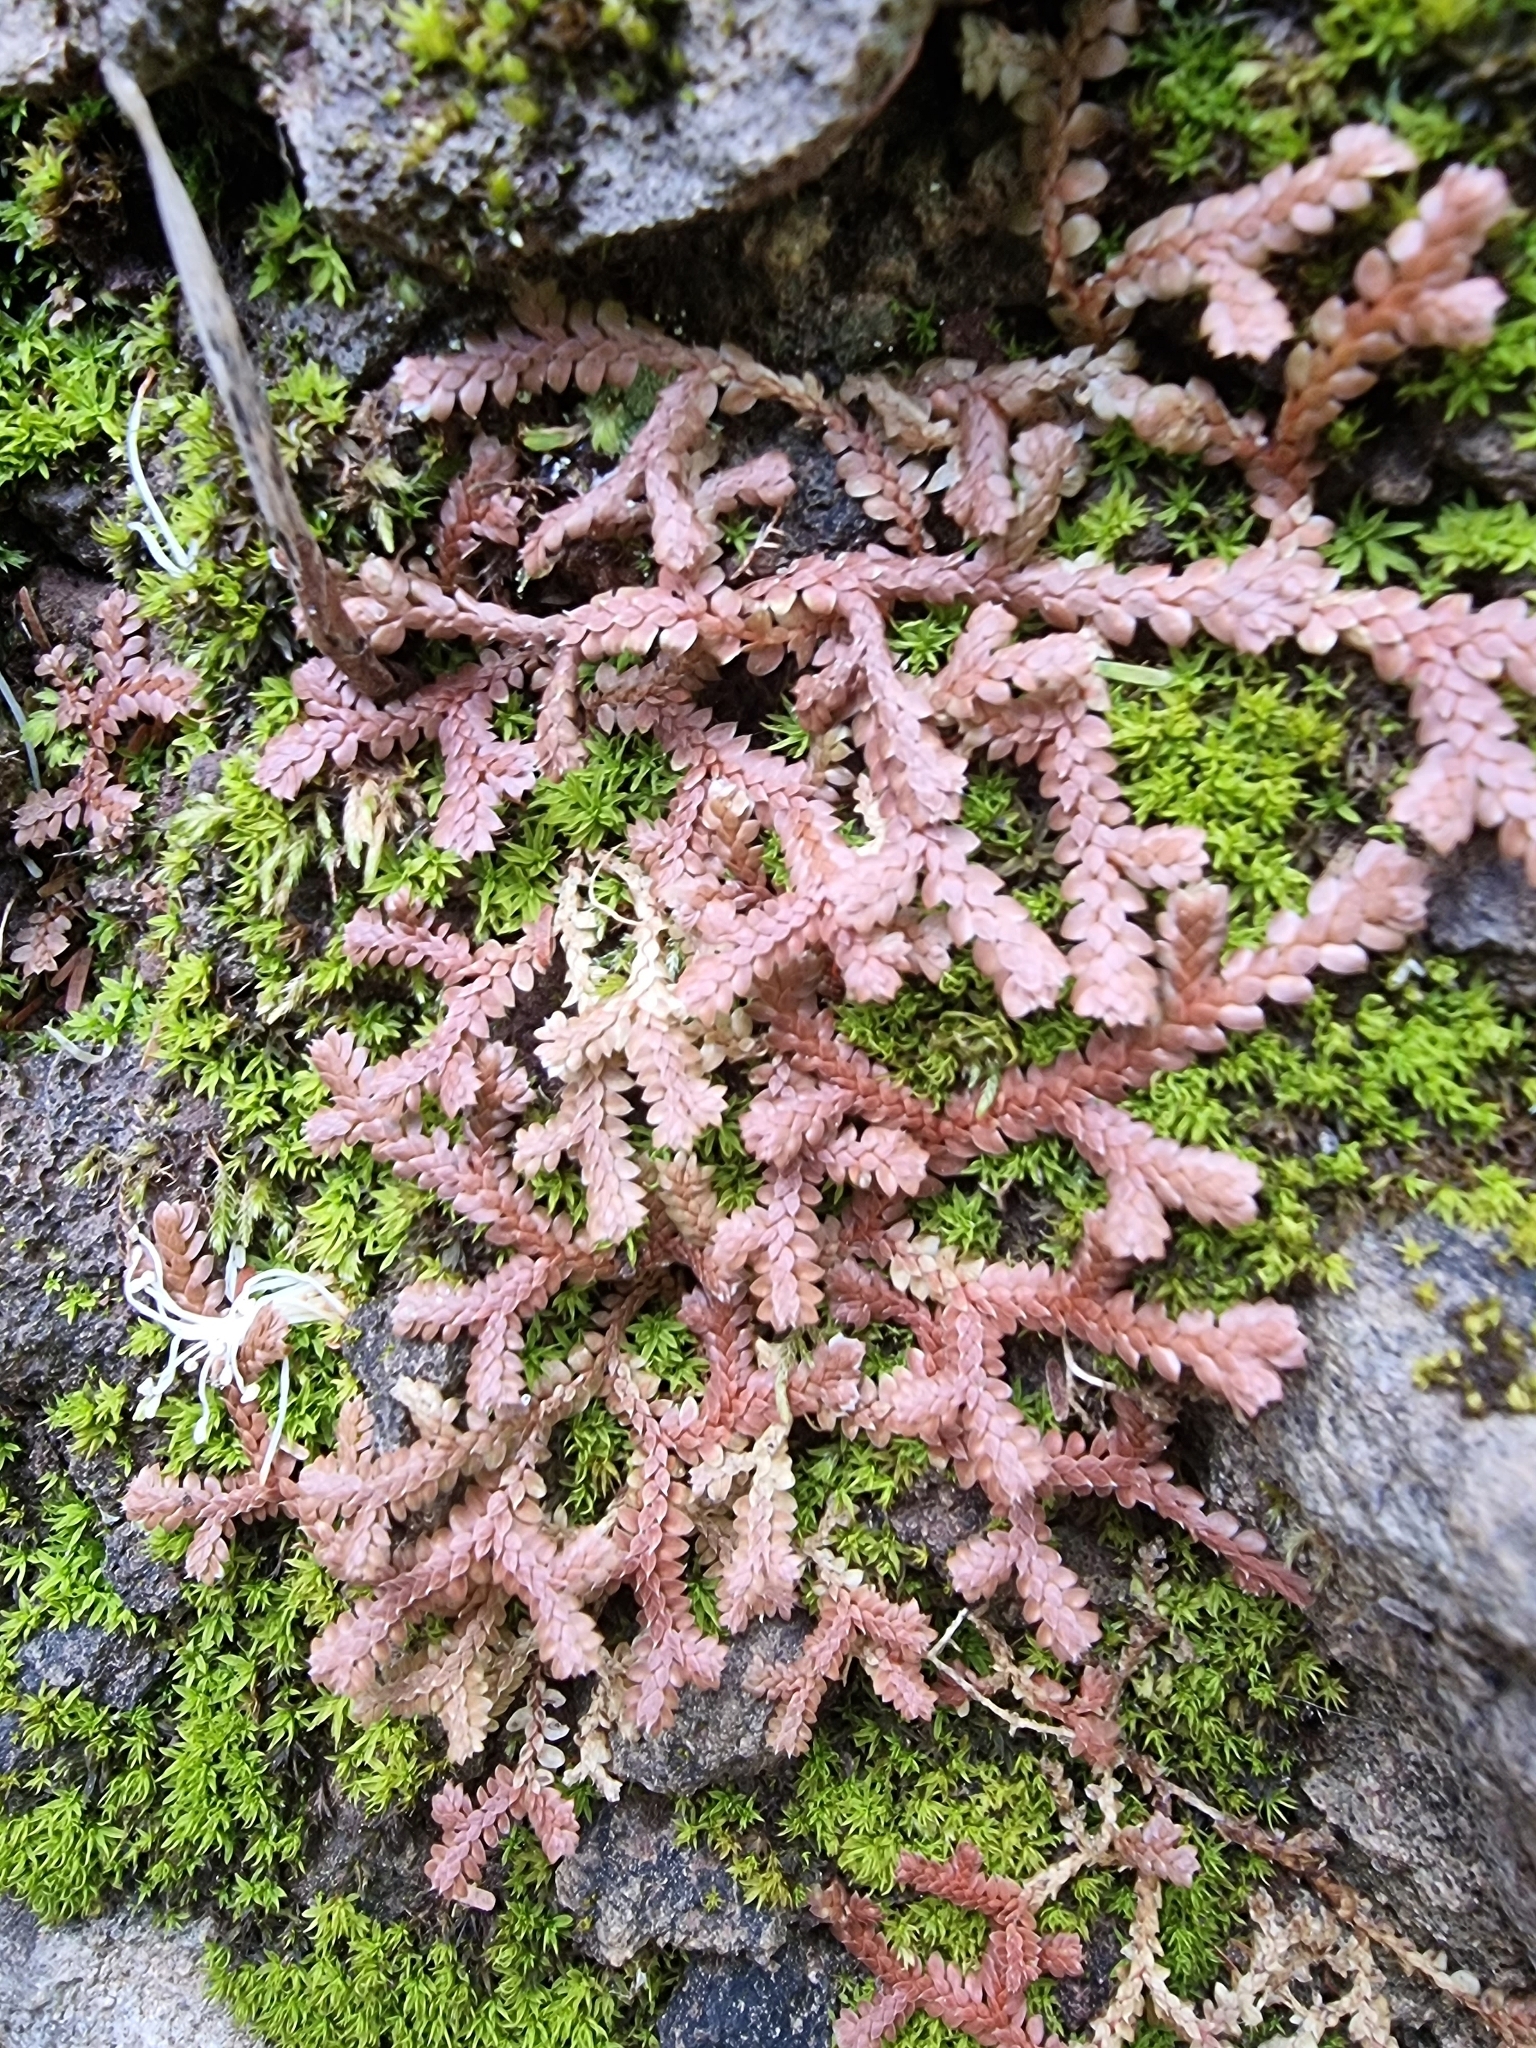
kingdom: Plantae
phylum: Tracheophyta
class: Lycopodiopsida
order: Selaginellales
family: Selaginellaceae
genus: Selaginella
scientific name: Selaginella denticulata
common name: Toothed-leaved clubmoss
